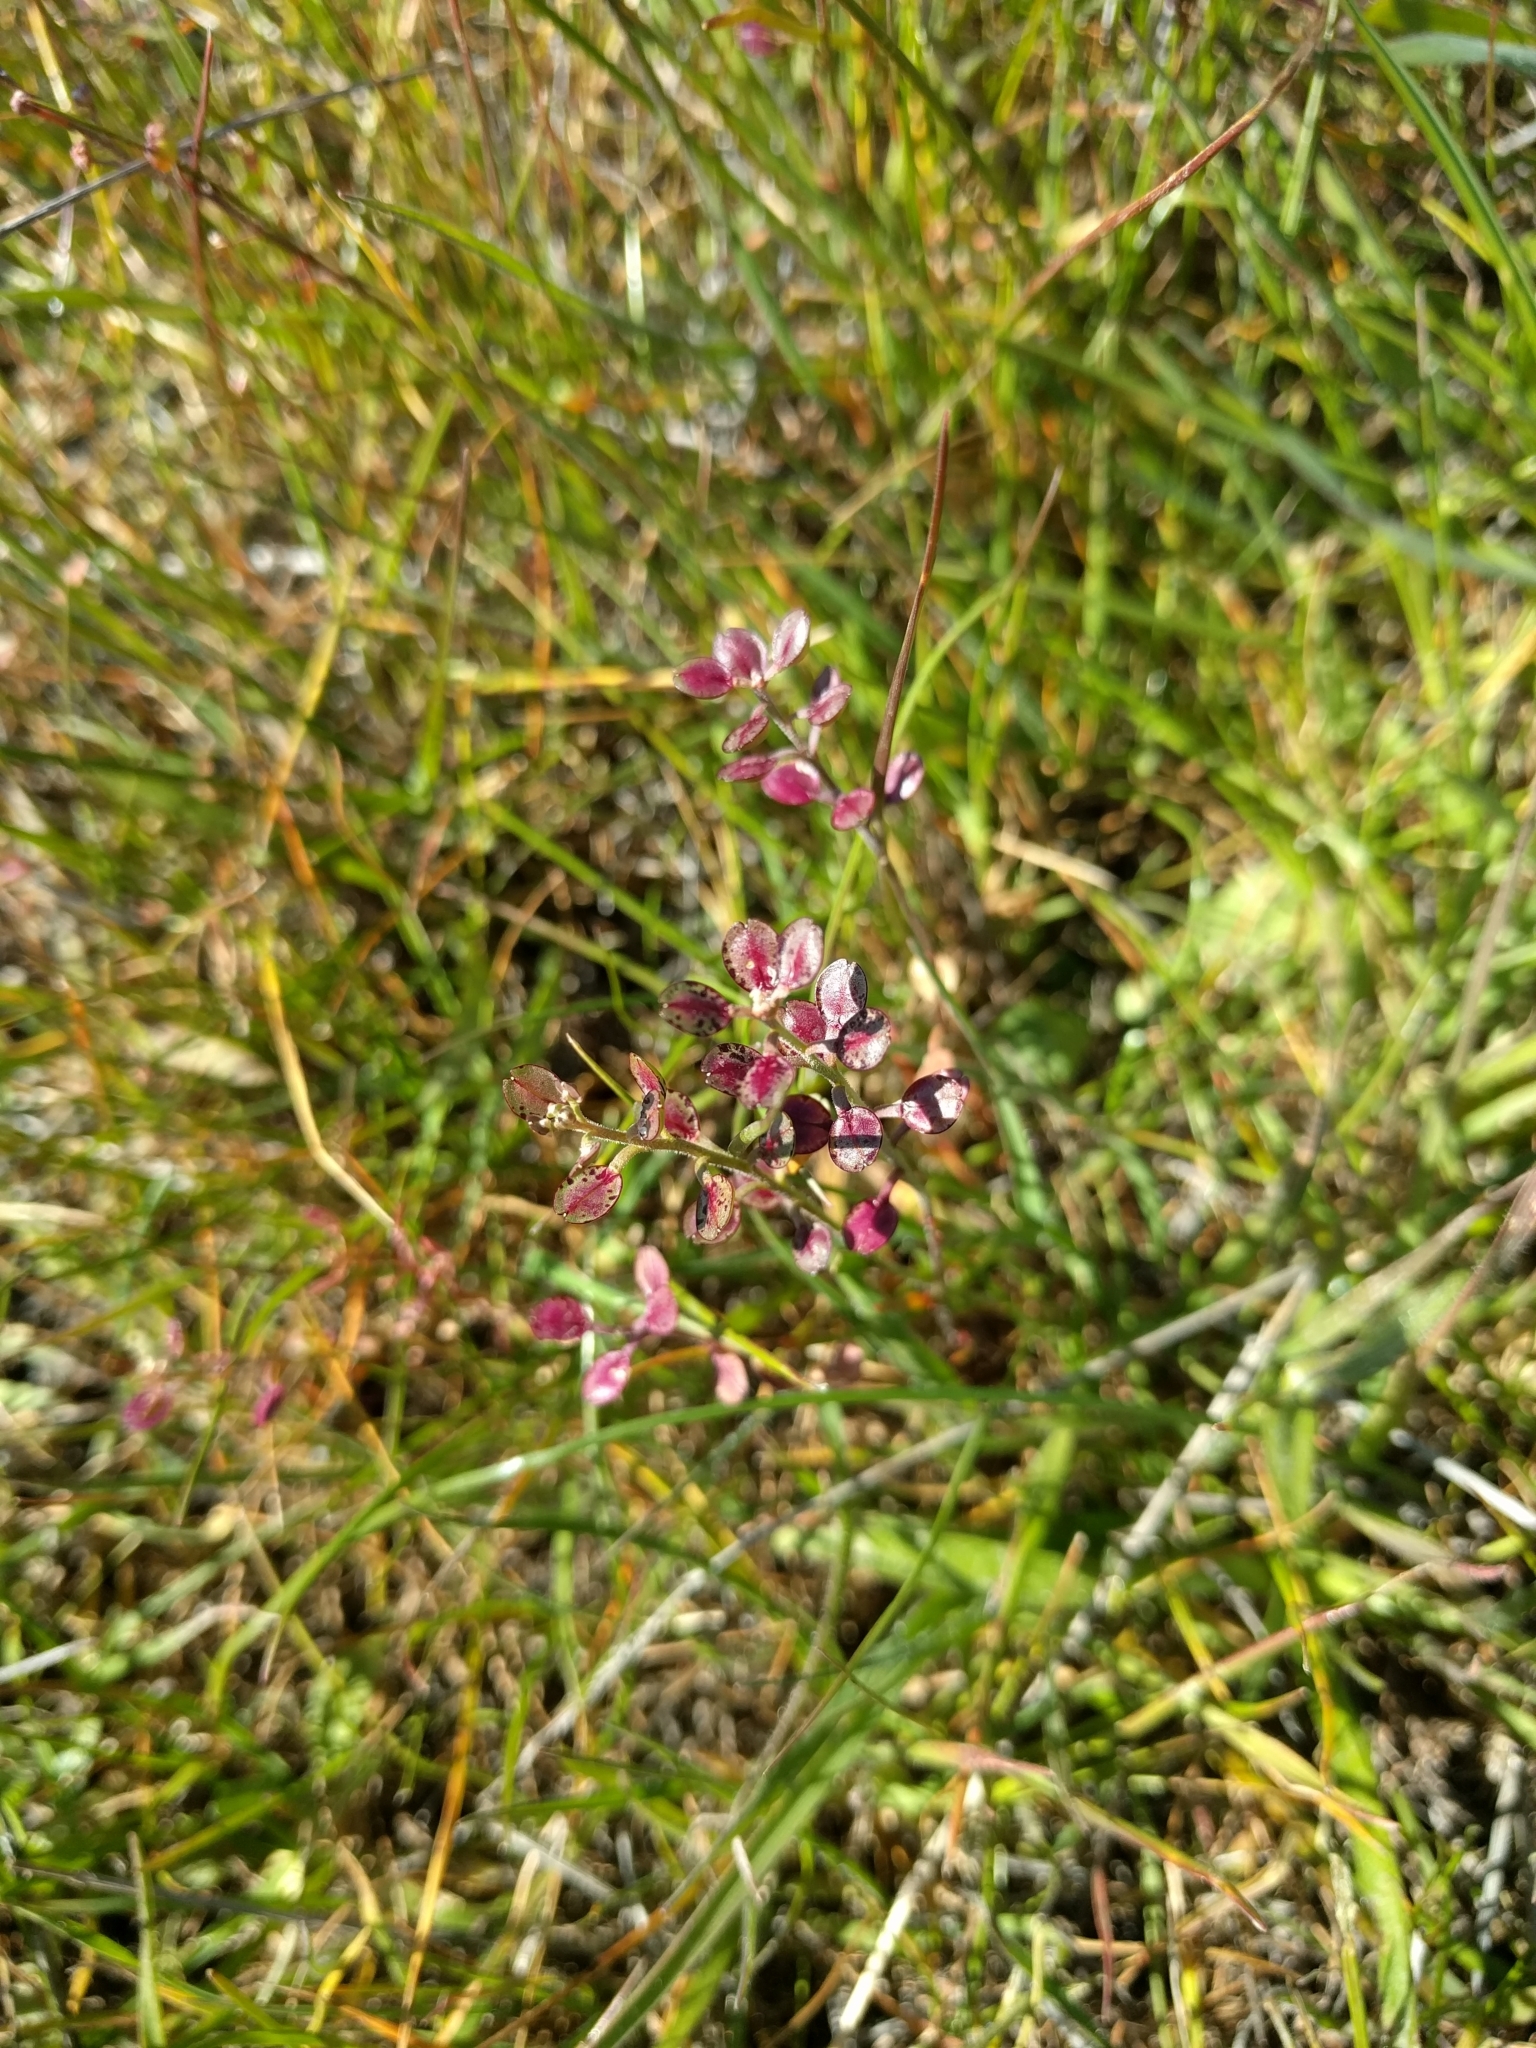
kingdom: Plantae
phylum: Tracheophyta
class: Magnoliopsida
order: Brassicales
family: Brassicaceae
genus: Lepidium
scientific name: Lepidium nitidum
